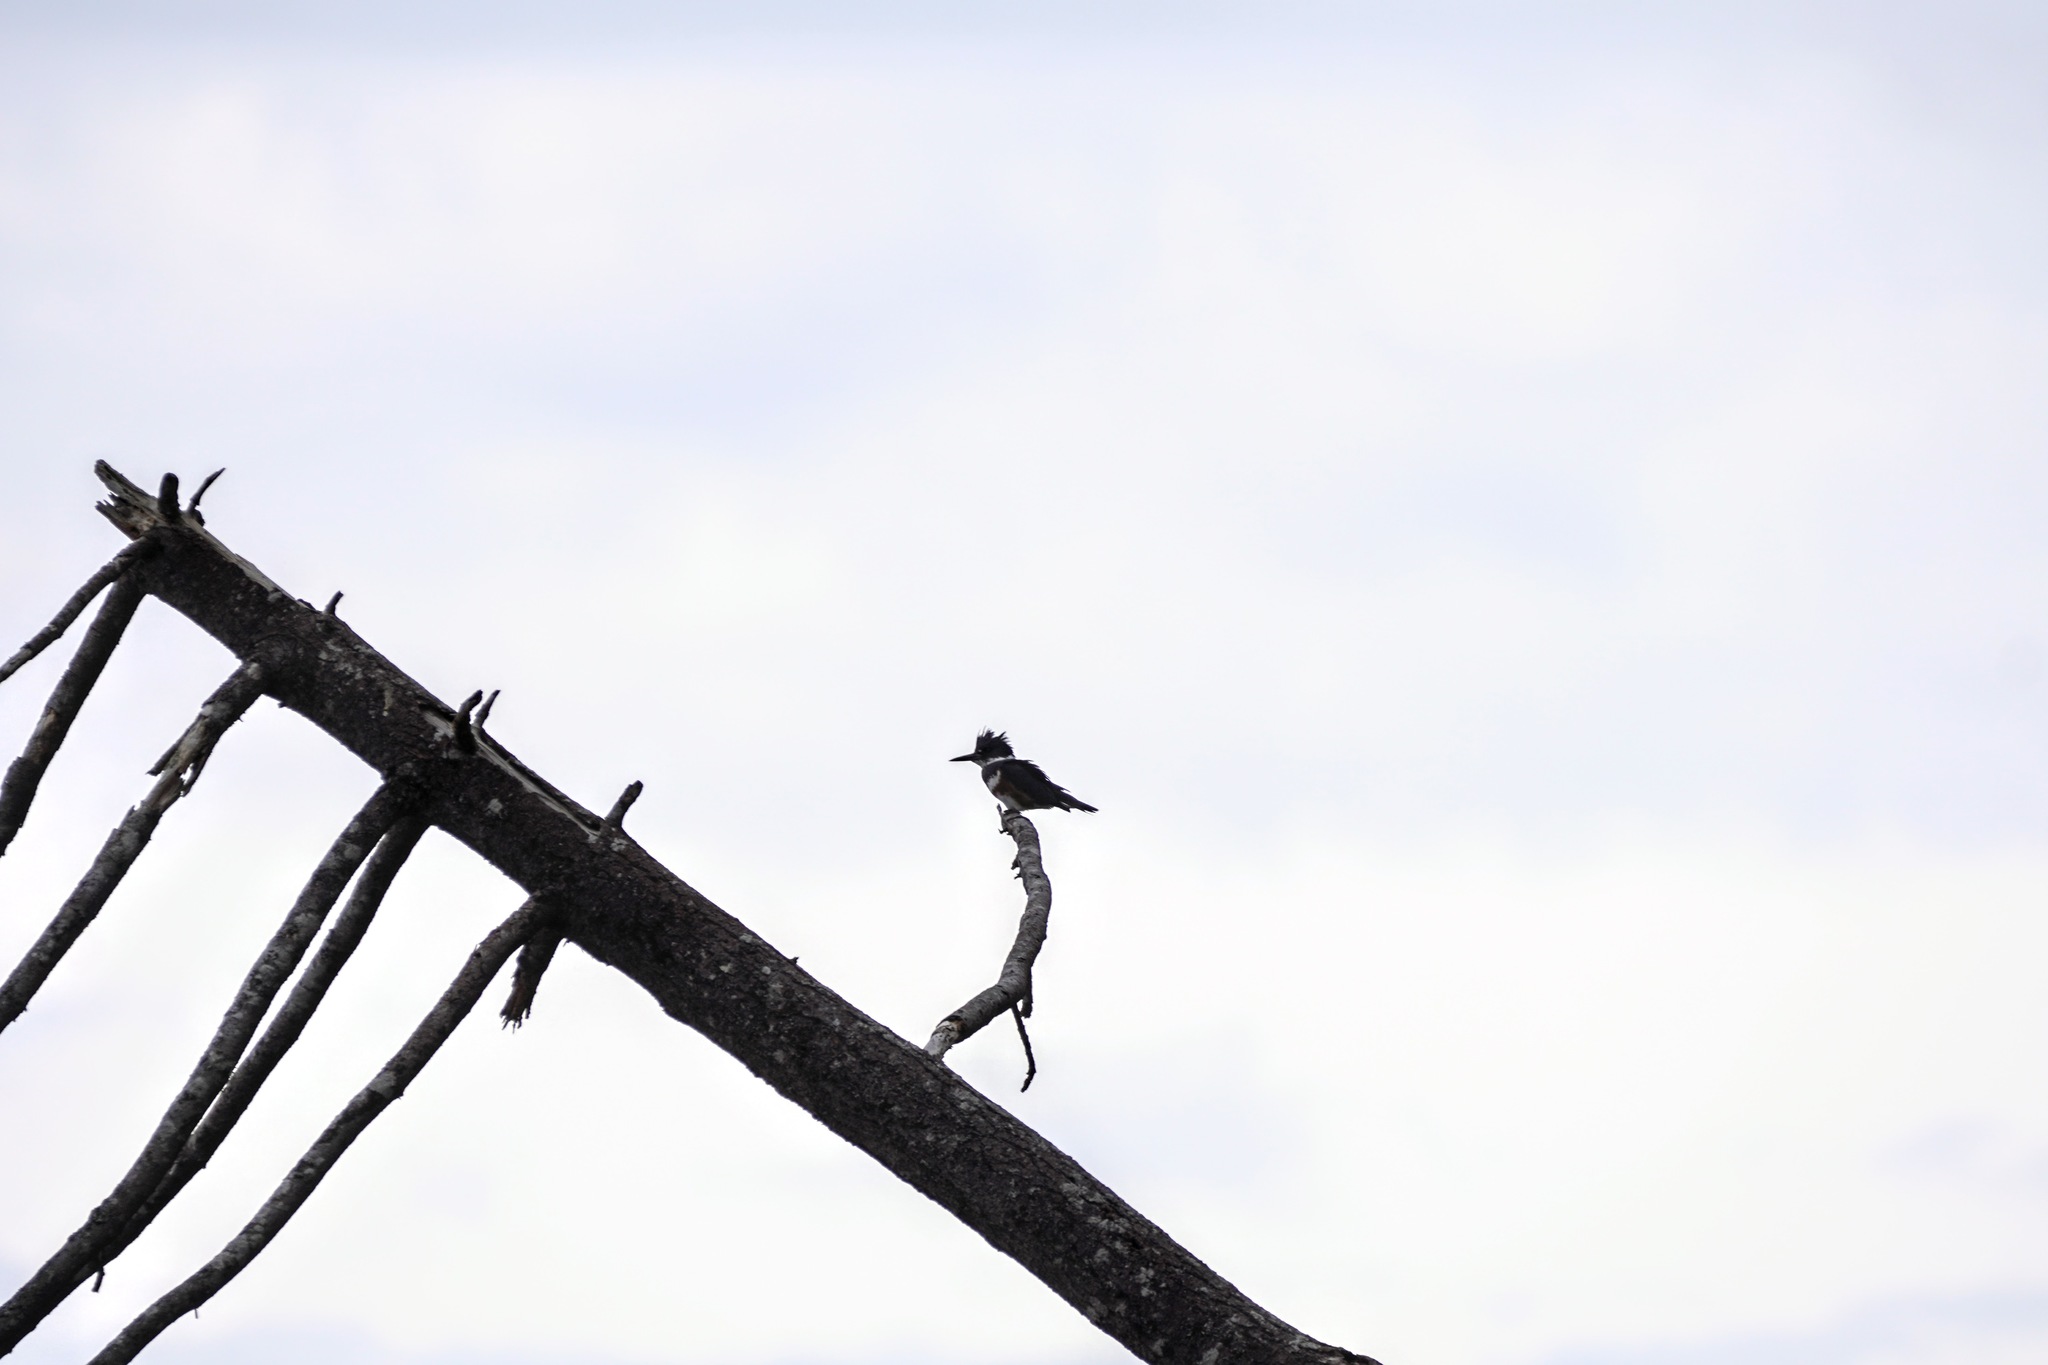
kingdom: Animalia
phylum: Chordata
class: Aves
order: Coraciiformes
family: Alcedinidae
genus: Megaceryle
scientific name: Megaceryle alcyon
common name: Belted kingfisher
